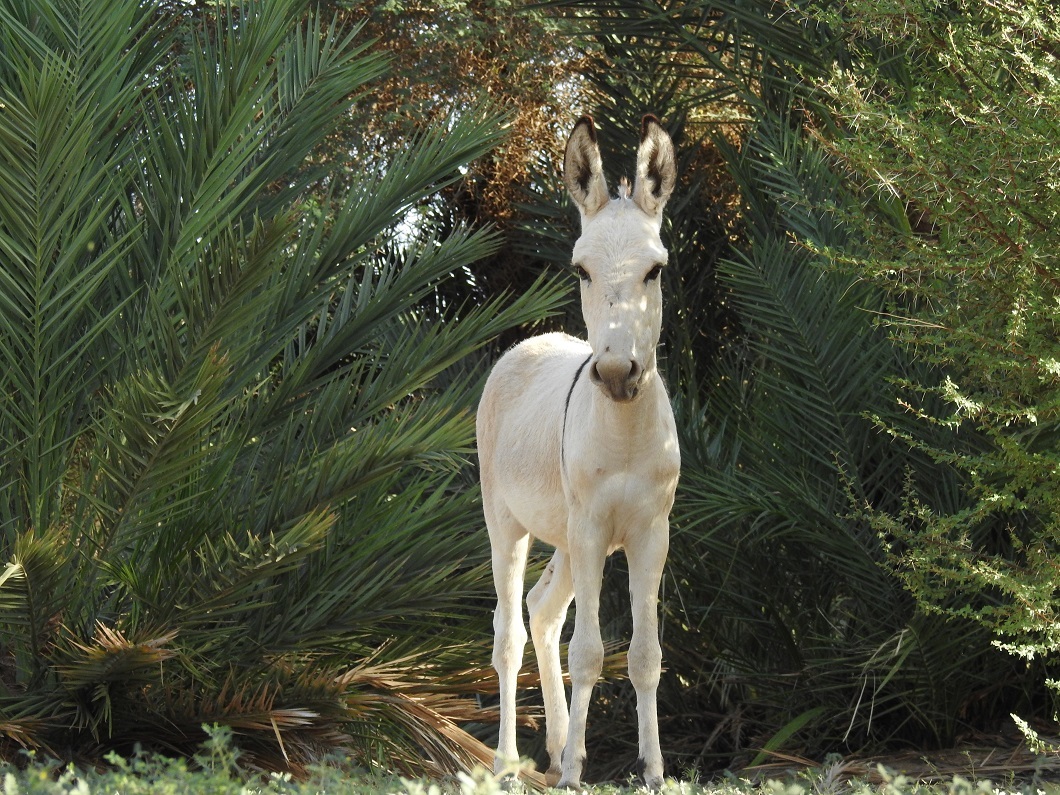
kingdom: Animalia
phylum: Chordata
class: Mammalia
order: Perissodactyla
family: Equidae
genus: Equus
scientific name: Equus asinus
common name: Ass
